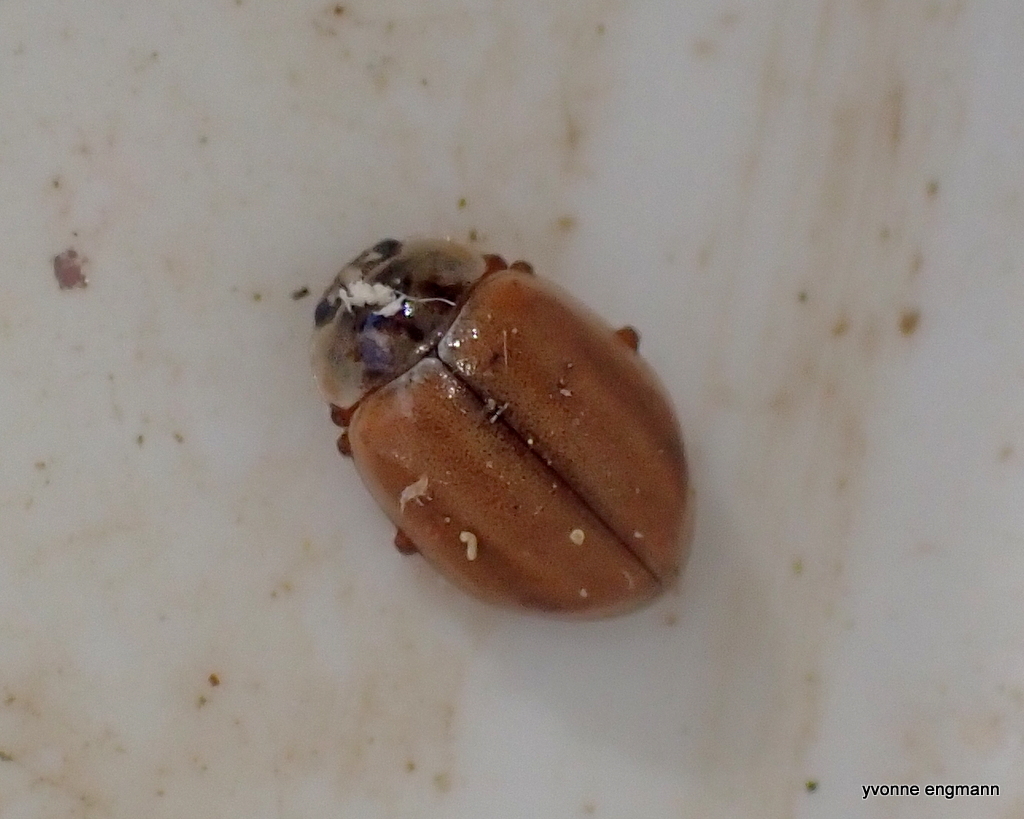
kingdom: Animalia
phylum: Arthropoda
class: Insecta
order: Coleoptera
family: Coccinellidae
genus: Aphidecta
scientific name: Aphidecta obliterata
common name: Larch ladybird
